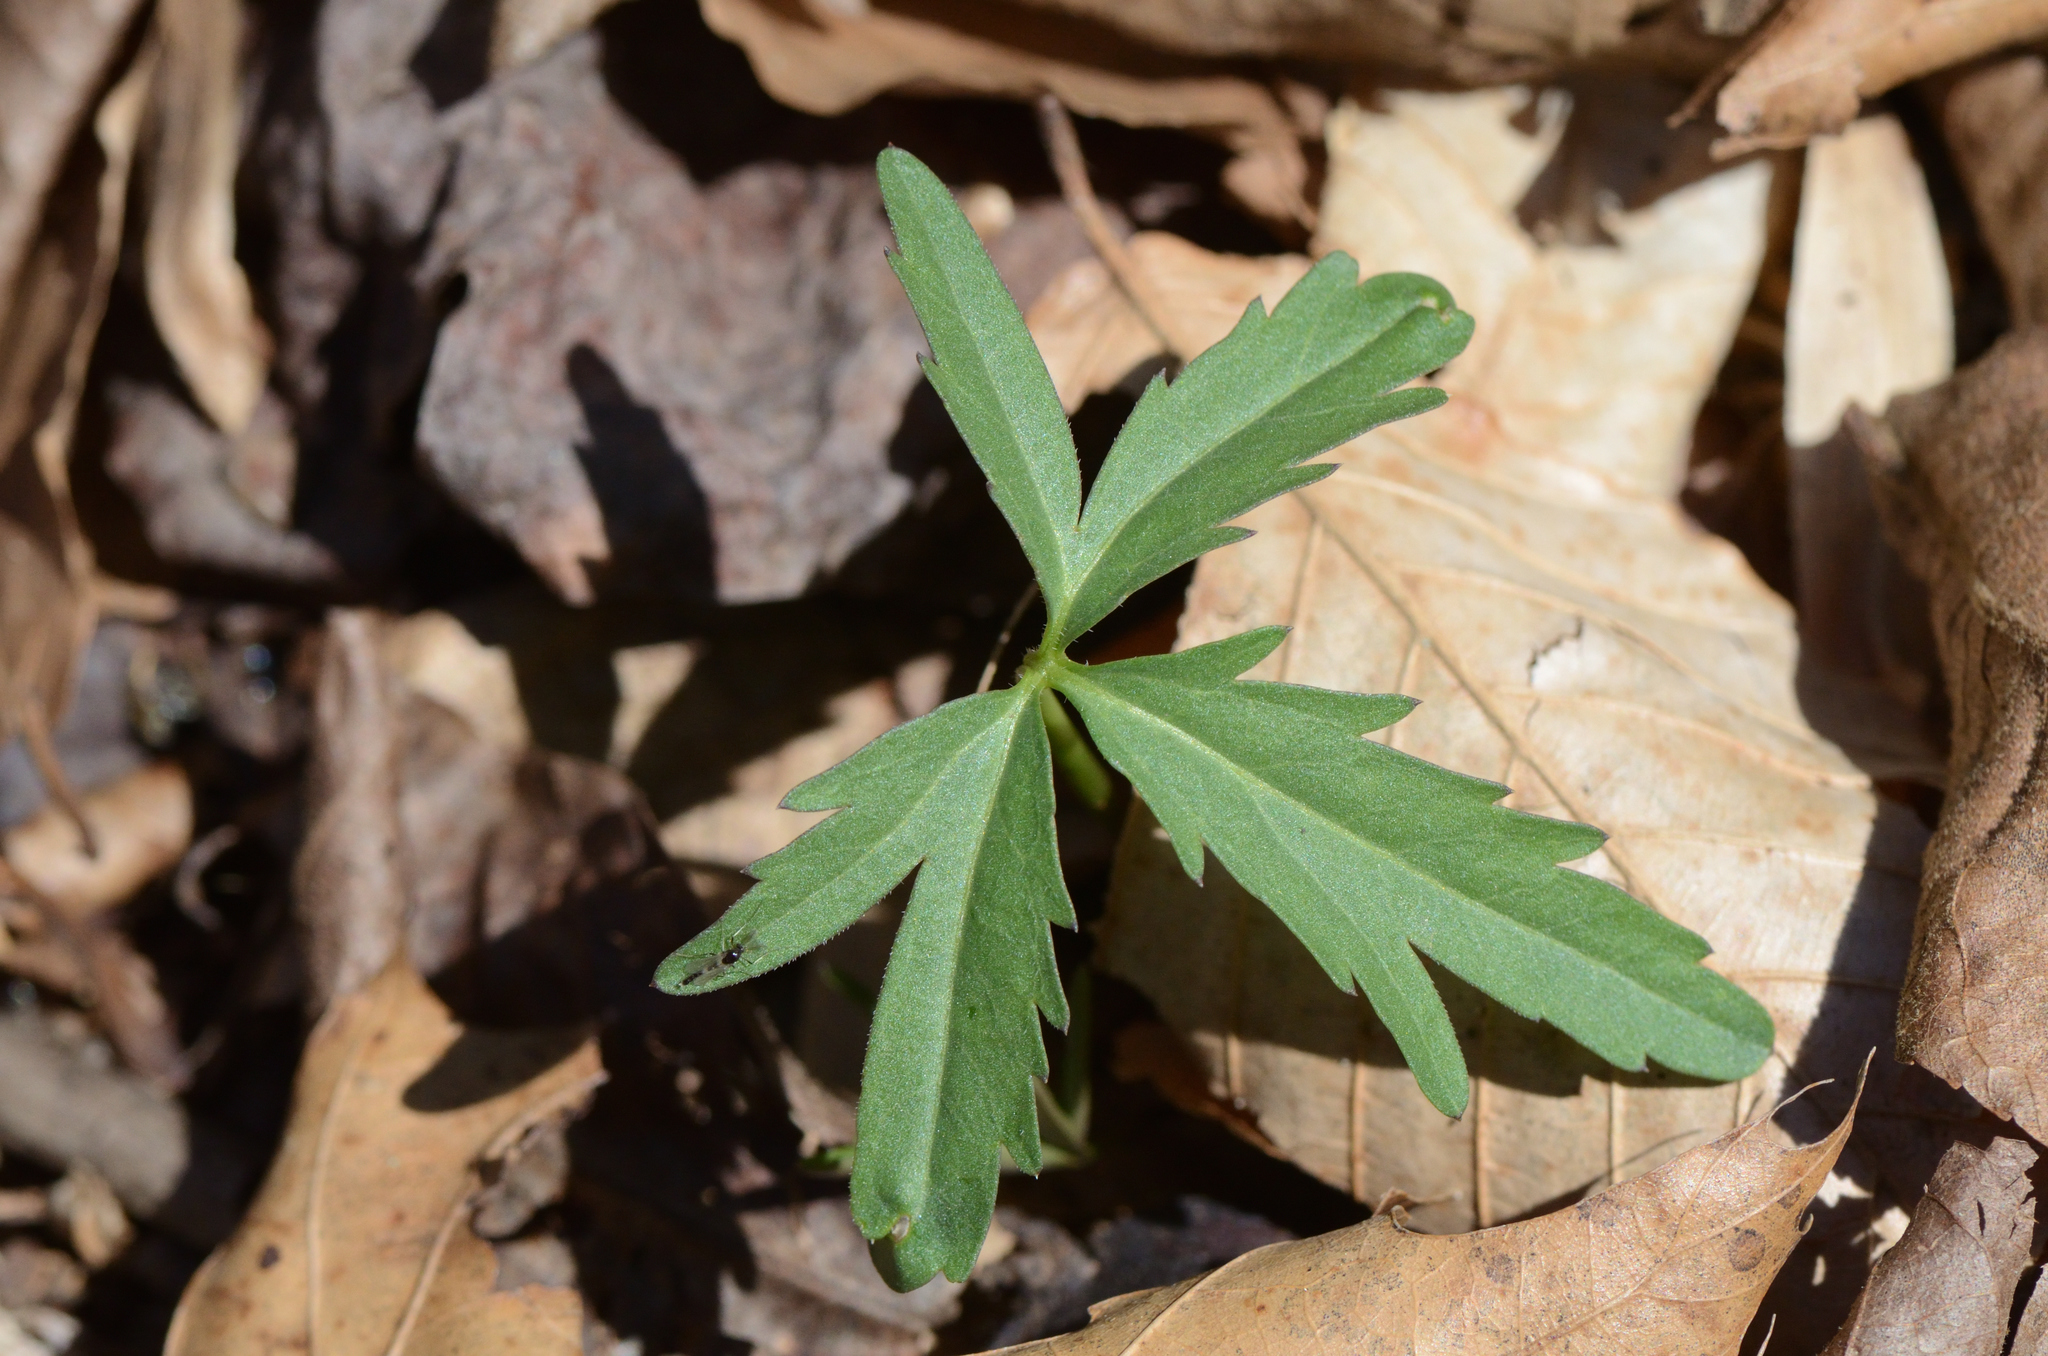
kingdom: Plantae
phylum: Tracheophyta
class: Magnoliopsida
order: Brassicales
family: Brassicaceae
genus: Cardamine
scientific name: Cardamine concatenata
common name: Cut-leaf toothcup
